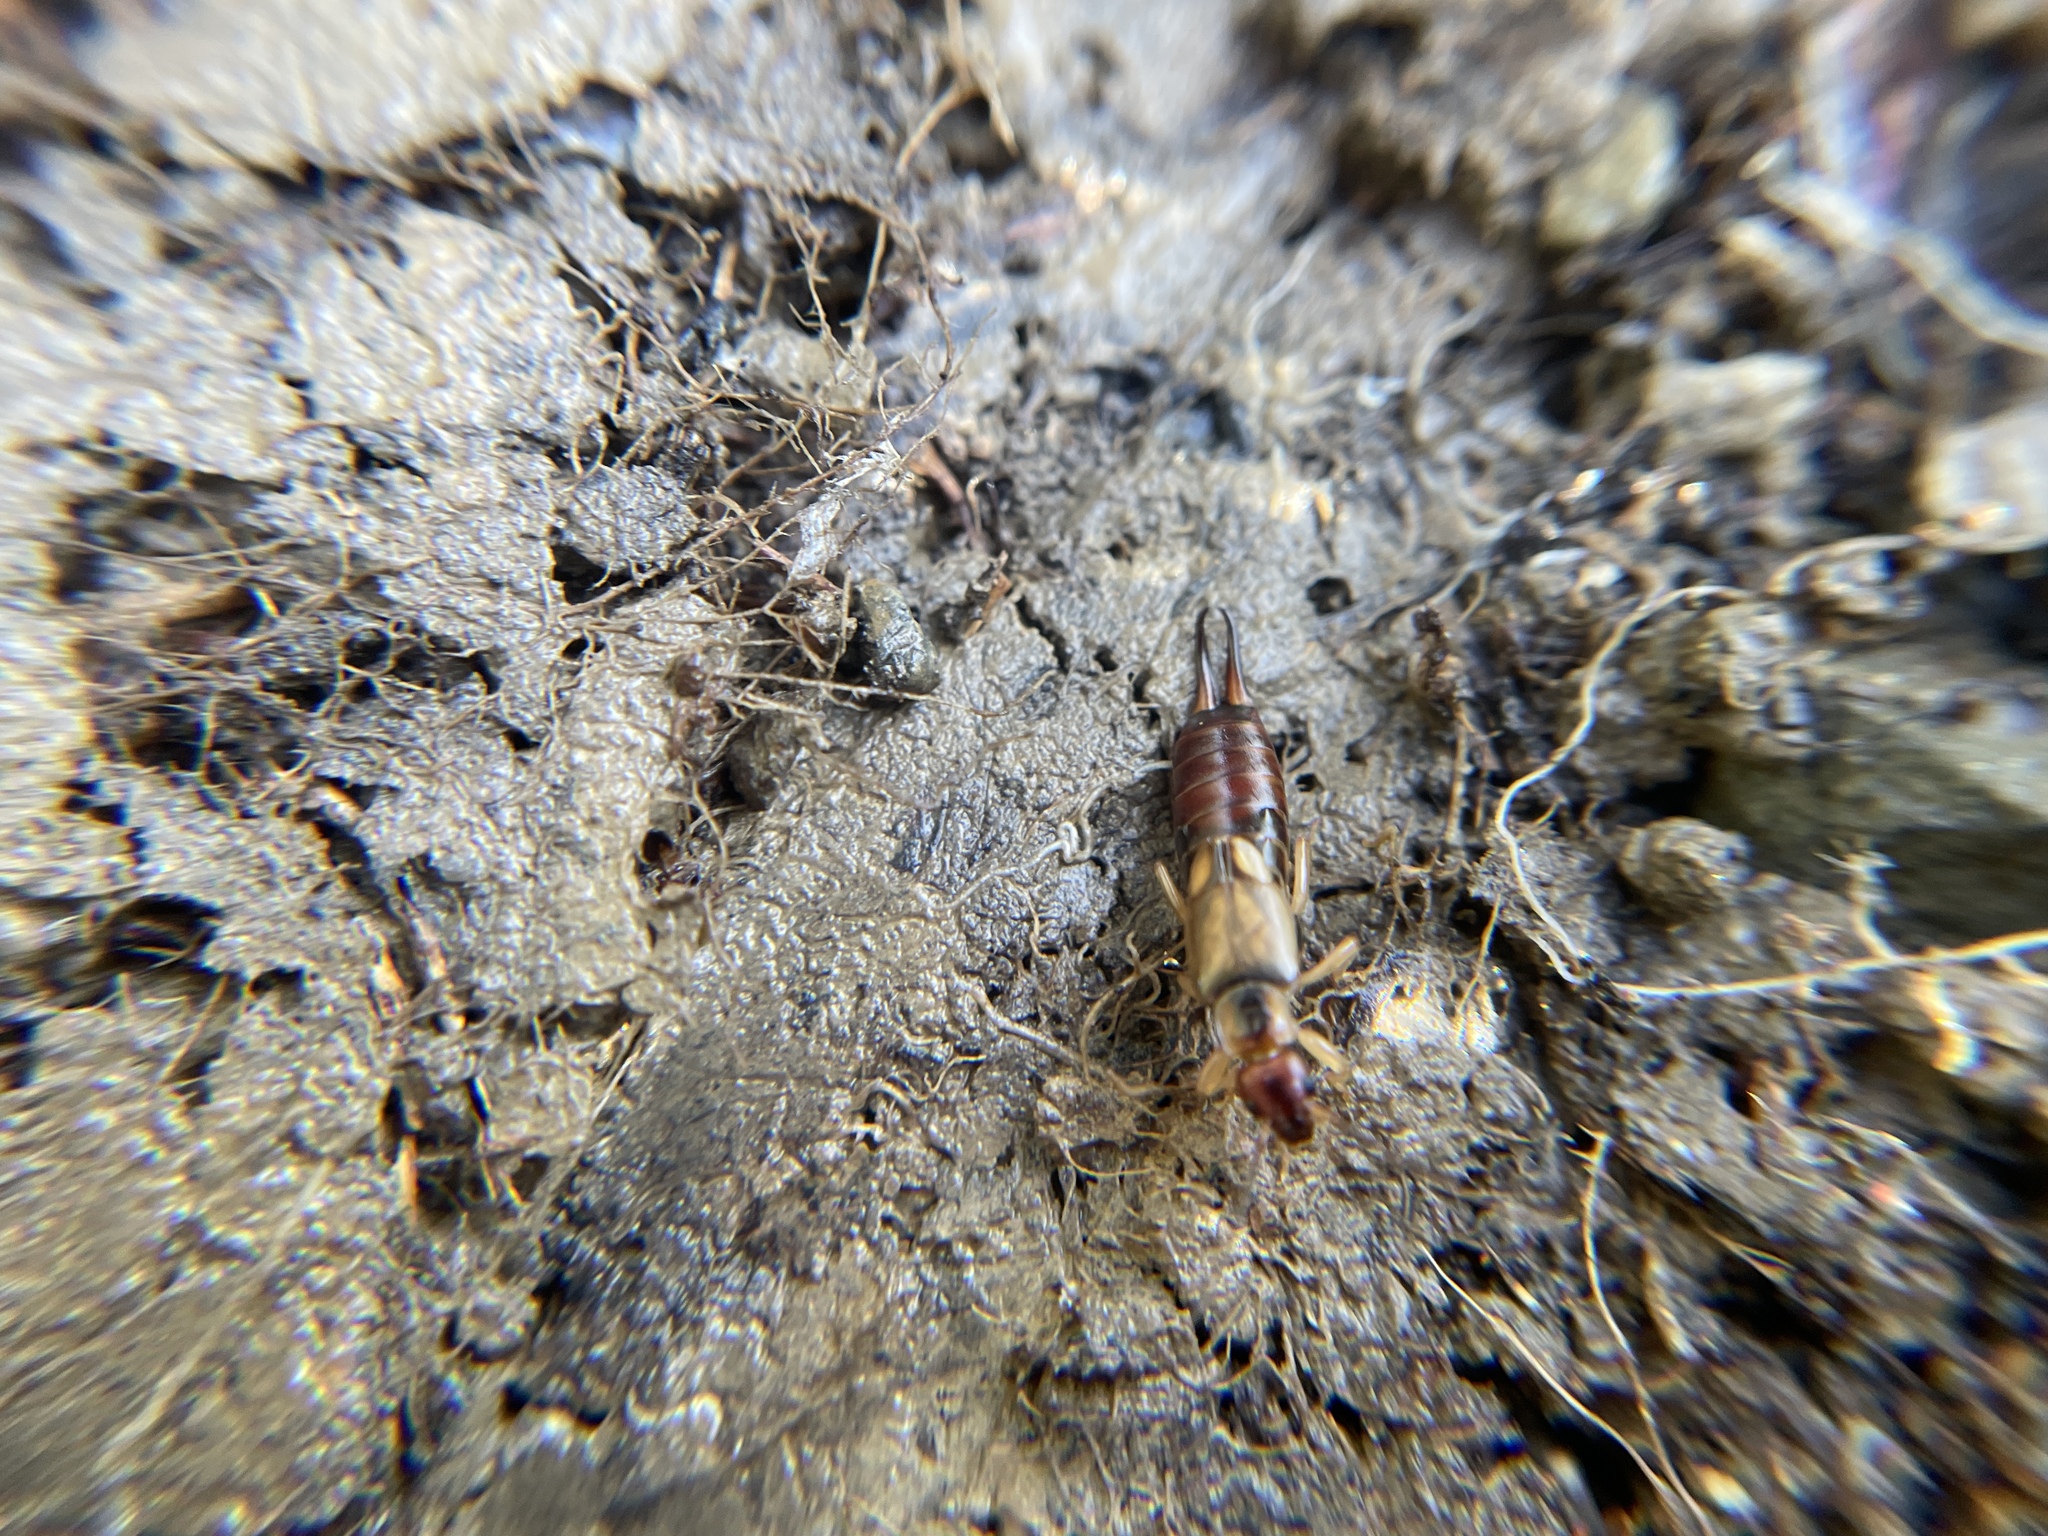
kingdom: Animalia
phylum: Arthropoda
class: Insecta
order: Dermaptera
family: Forficulidae
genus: Forficula
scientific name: Forficula dentata
